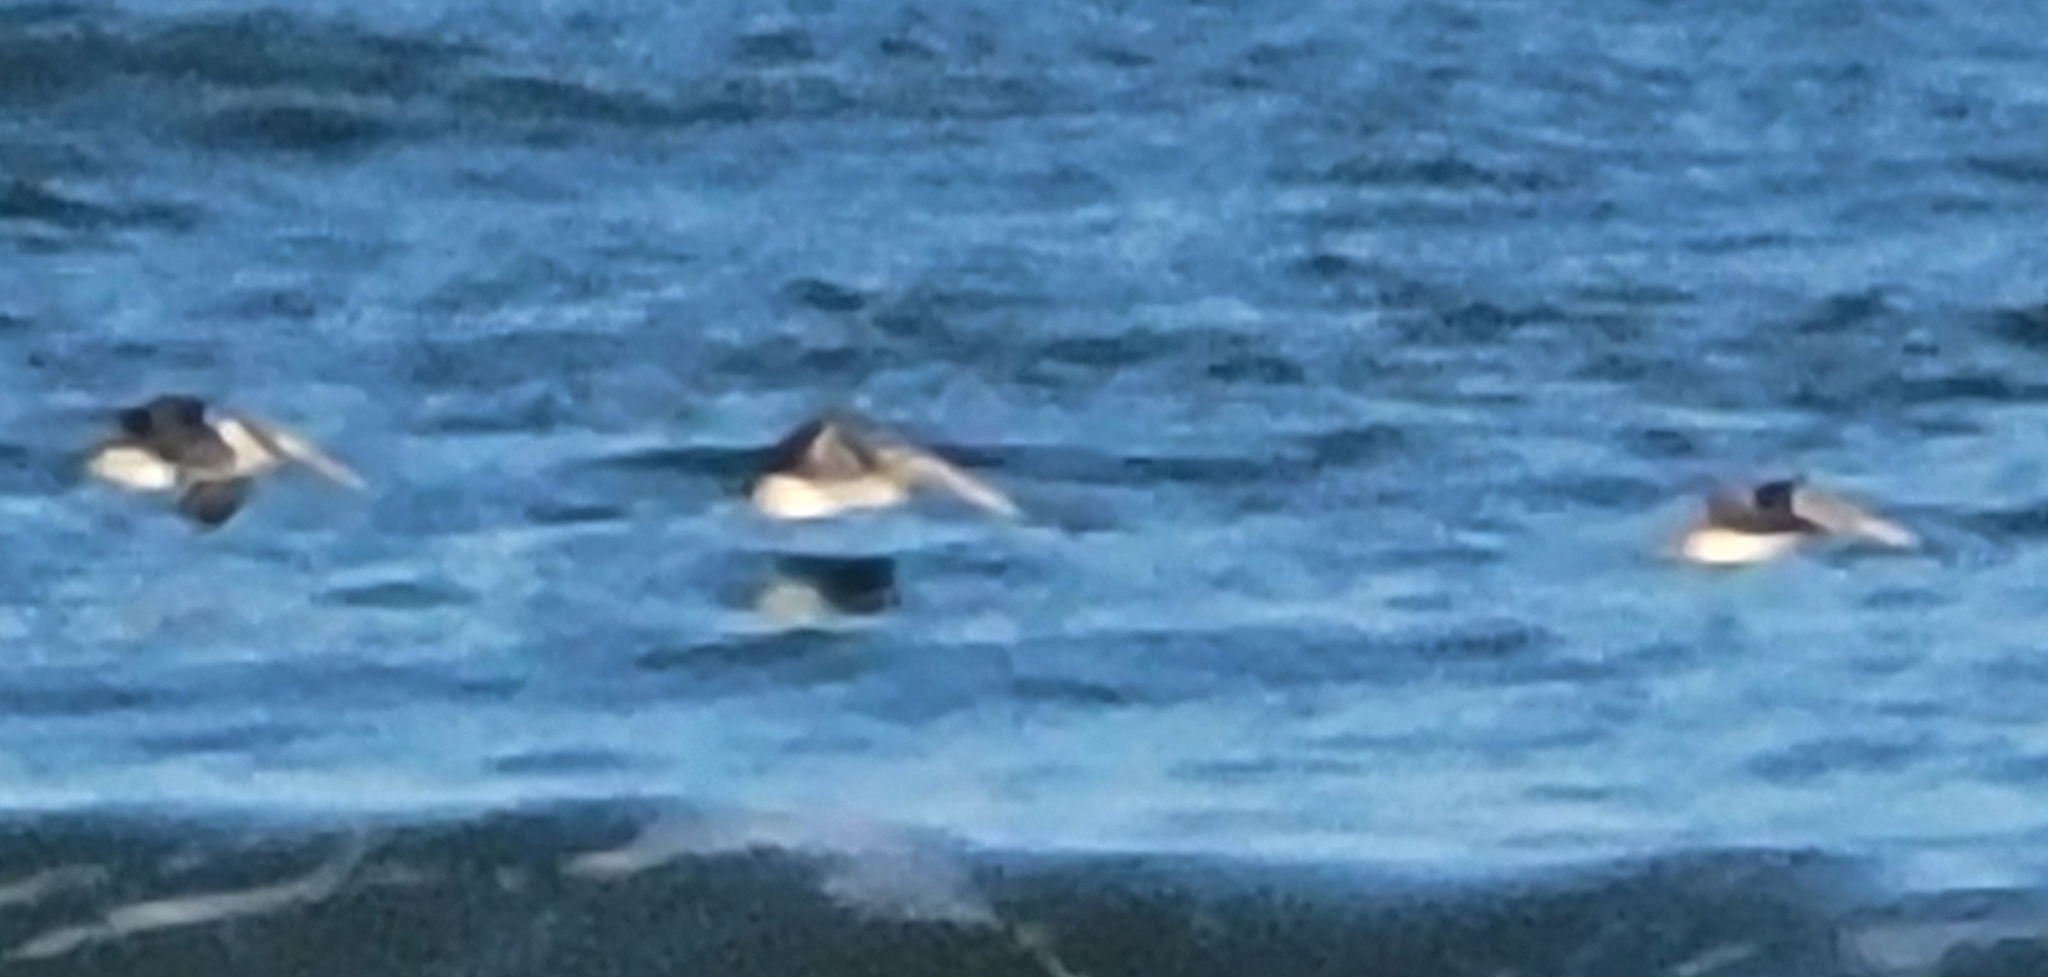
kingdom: Animalia
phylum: Chordata
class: Aves
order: Pelecaniformes
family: Pelecanidae
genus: Pelecanus
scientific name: Pelecanus occidentalis
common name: Brown pelican
